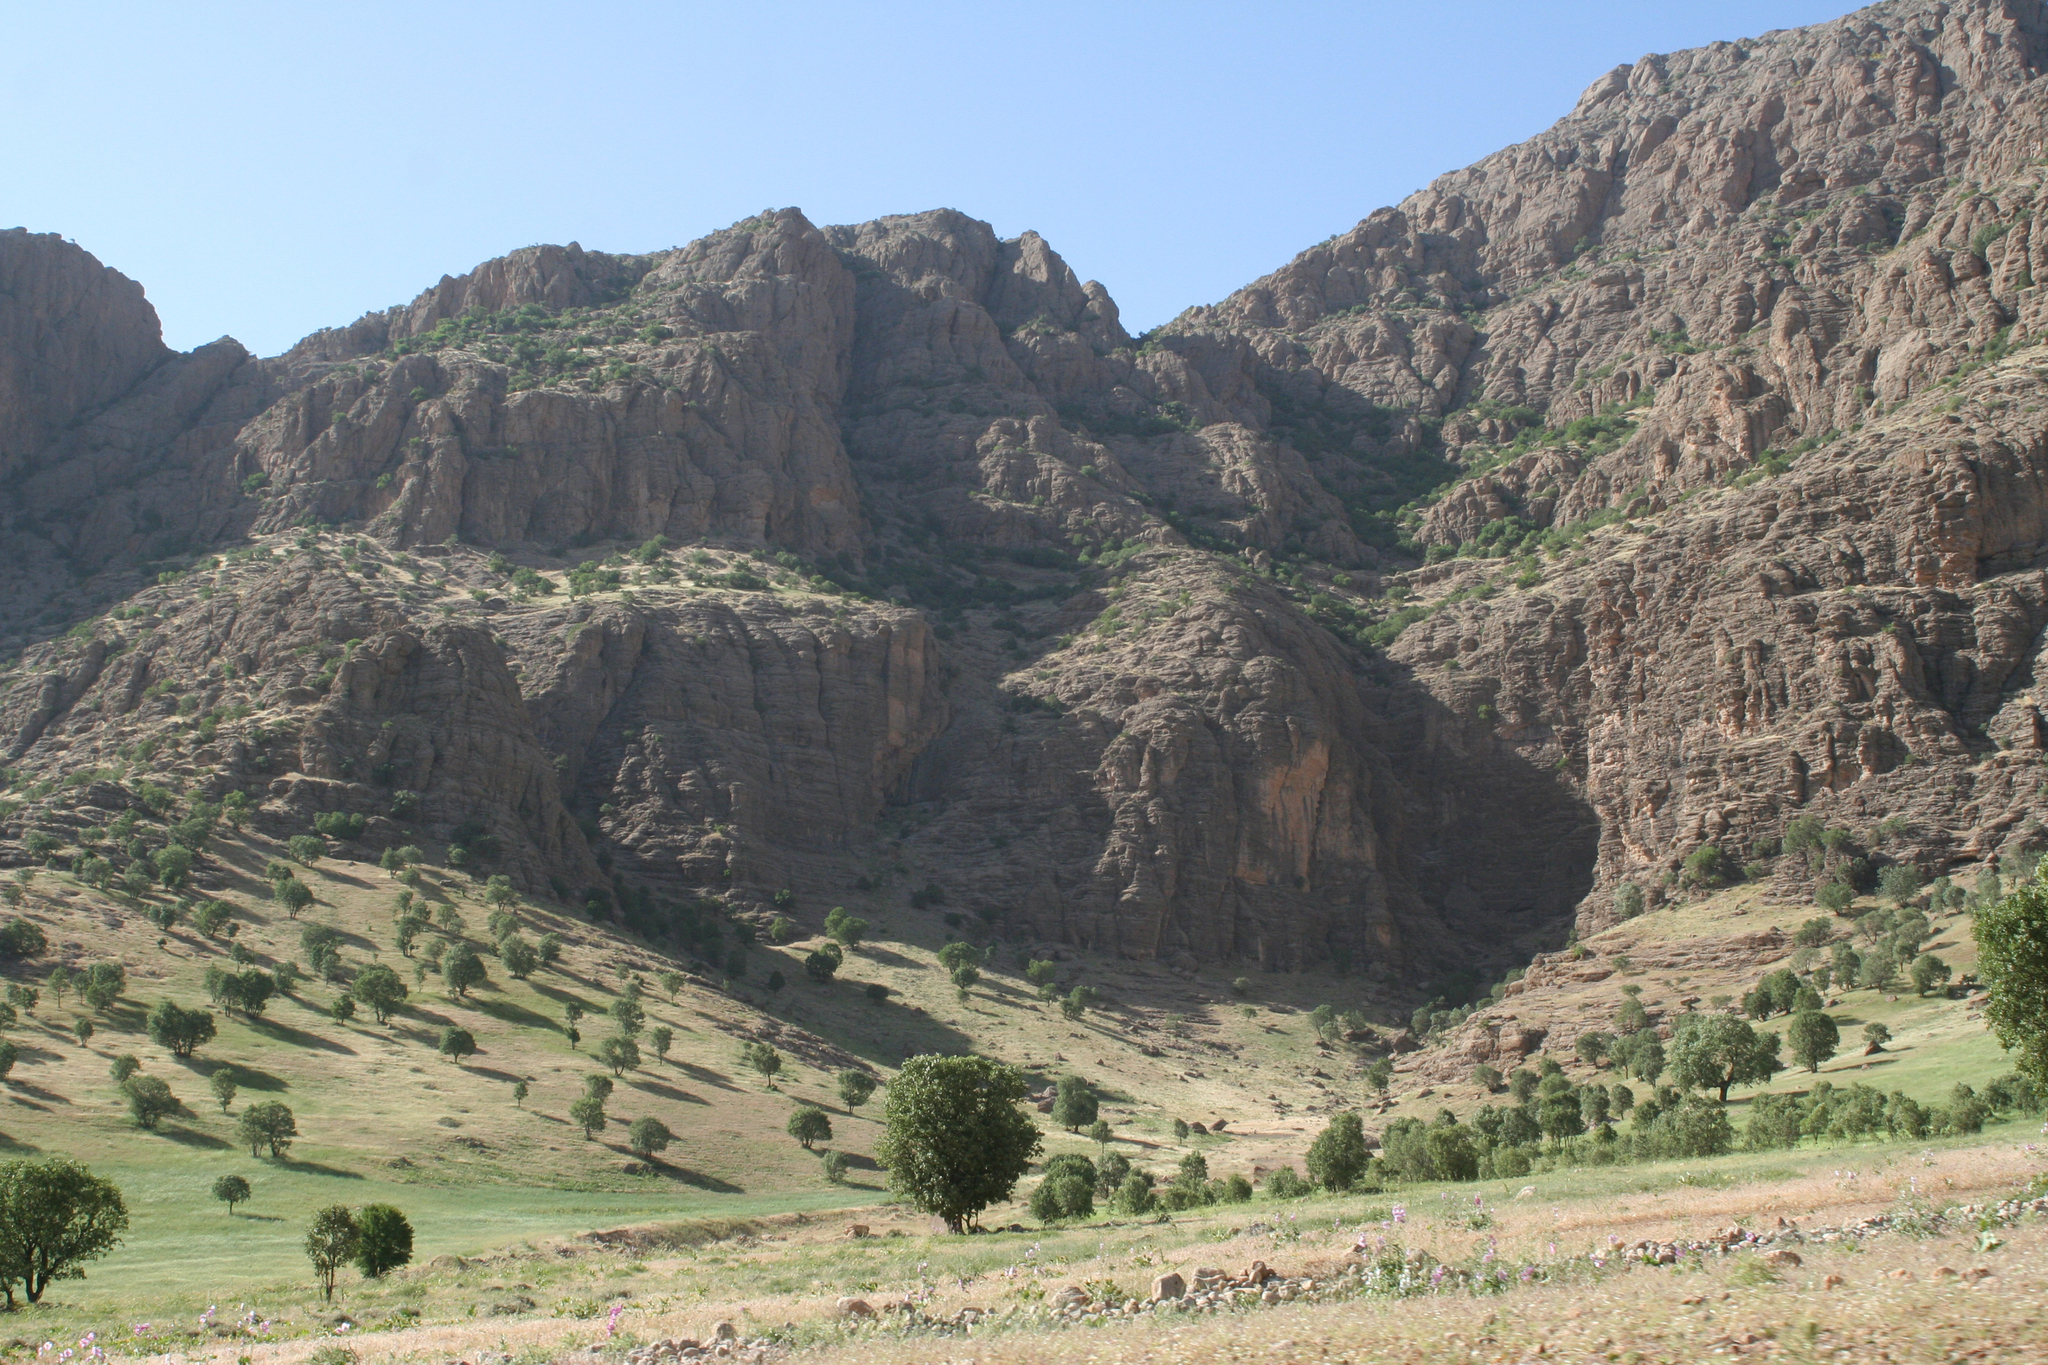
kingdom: Plantae
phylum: Tracheophyta
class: Magnoliopsida
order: Fagales
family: Fagaceae
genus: Quercus
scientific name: Quercus brantii
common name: Brant oak
